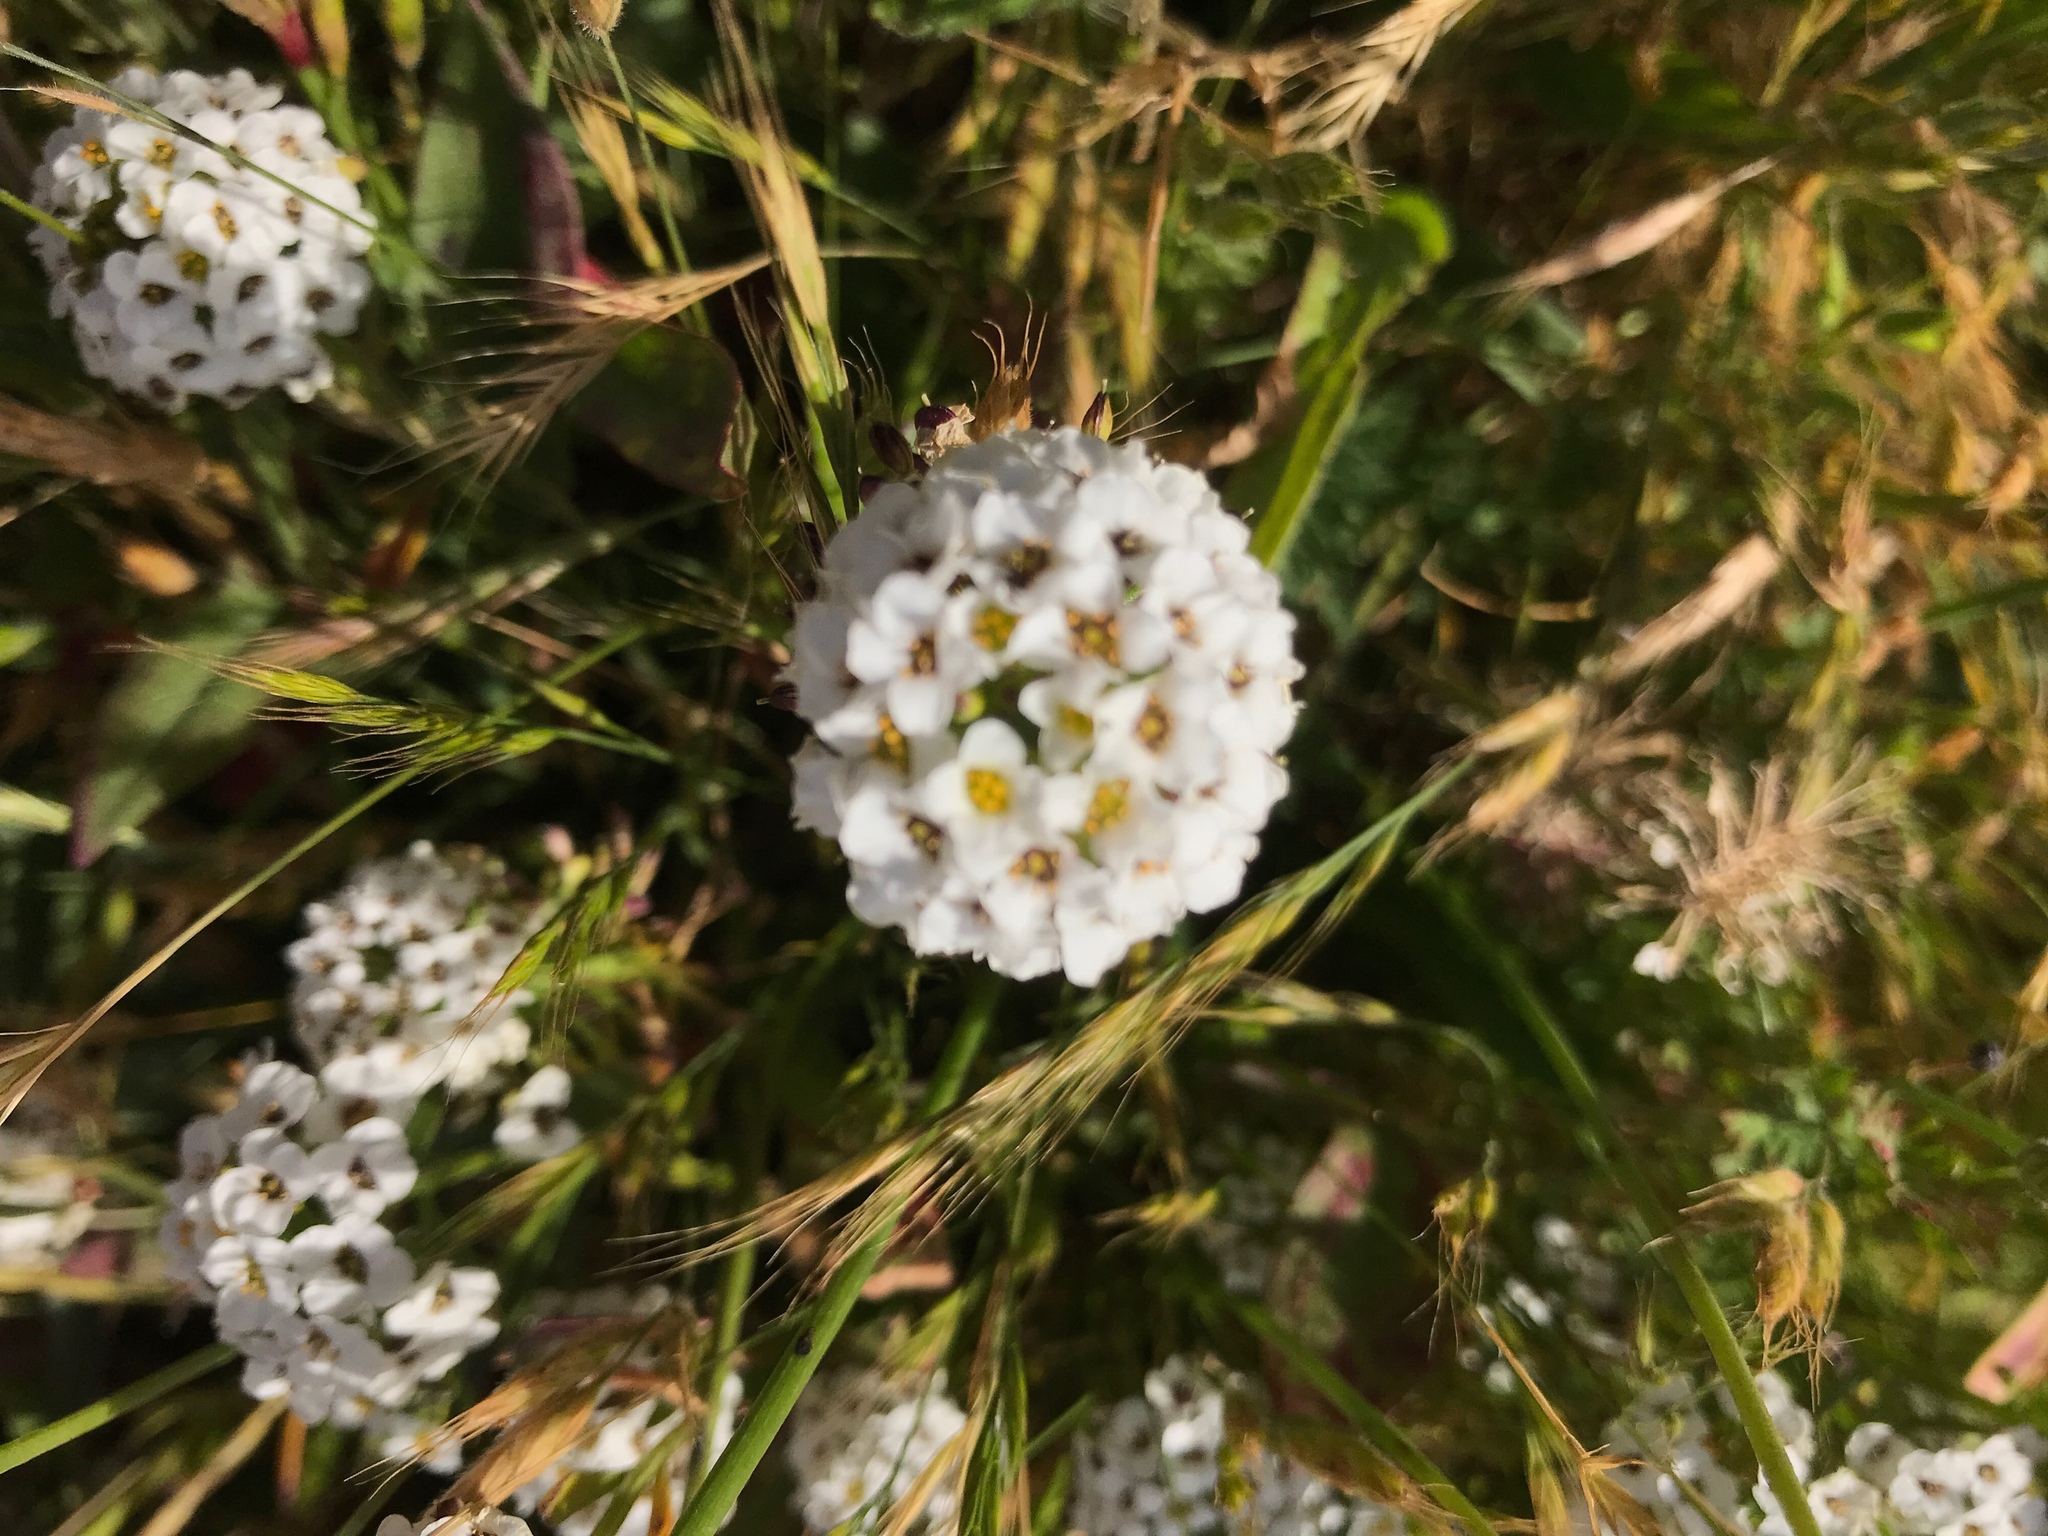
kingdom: Plantae
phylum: Tracheophyta
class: Magnoliopsida
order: Brassicales
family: Brassicaceae
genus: Lobularia
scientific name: Lobularia maritima
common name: Sweet alison
